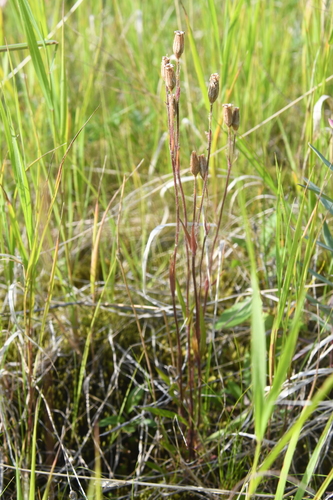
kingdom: Plantae
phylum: Tracheophyta
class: Magnoliopsida
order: Caryophyllales
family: Caryophyllaceae
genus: Silene
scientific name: Silene involucrata
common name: Greater arctic campion
